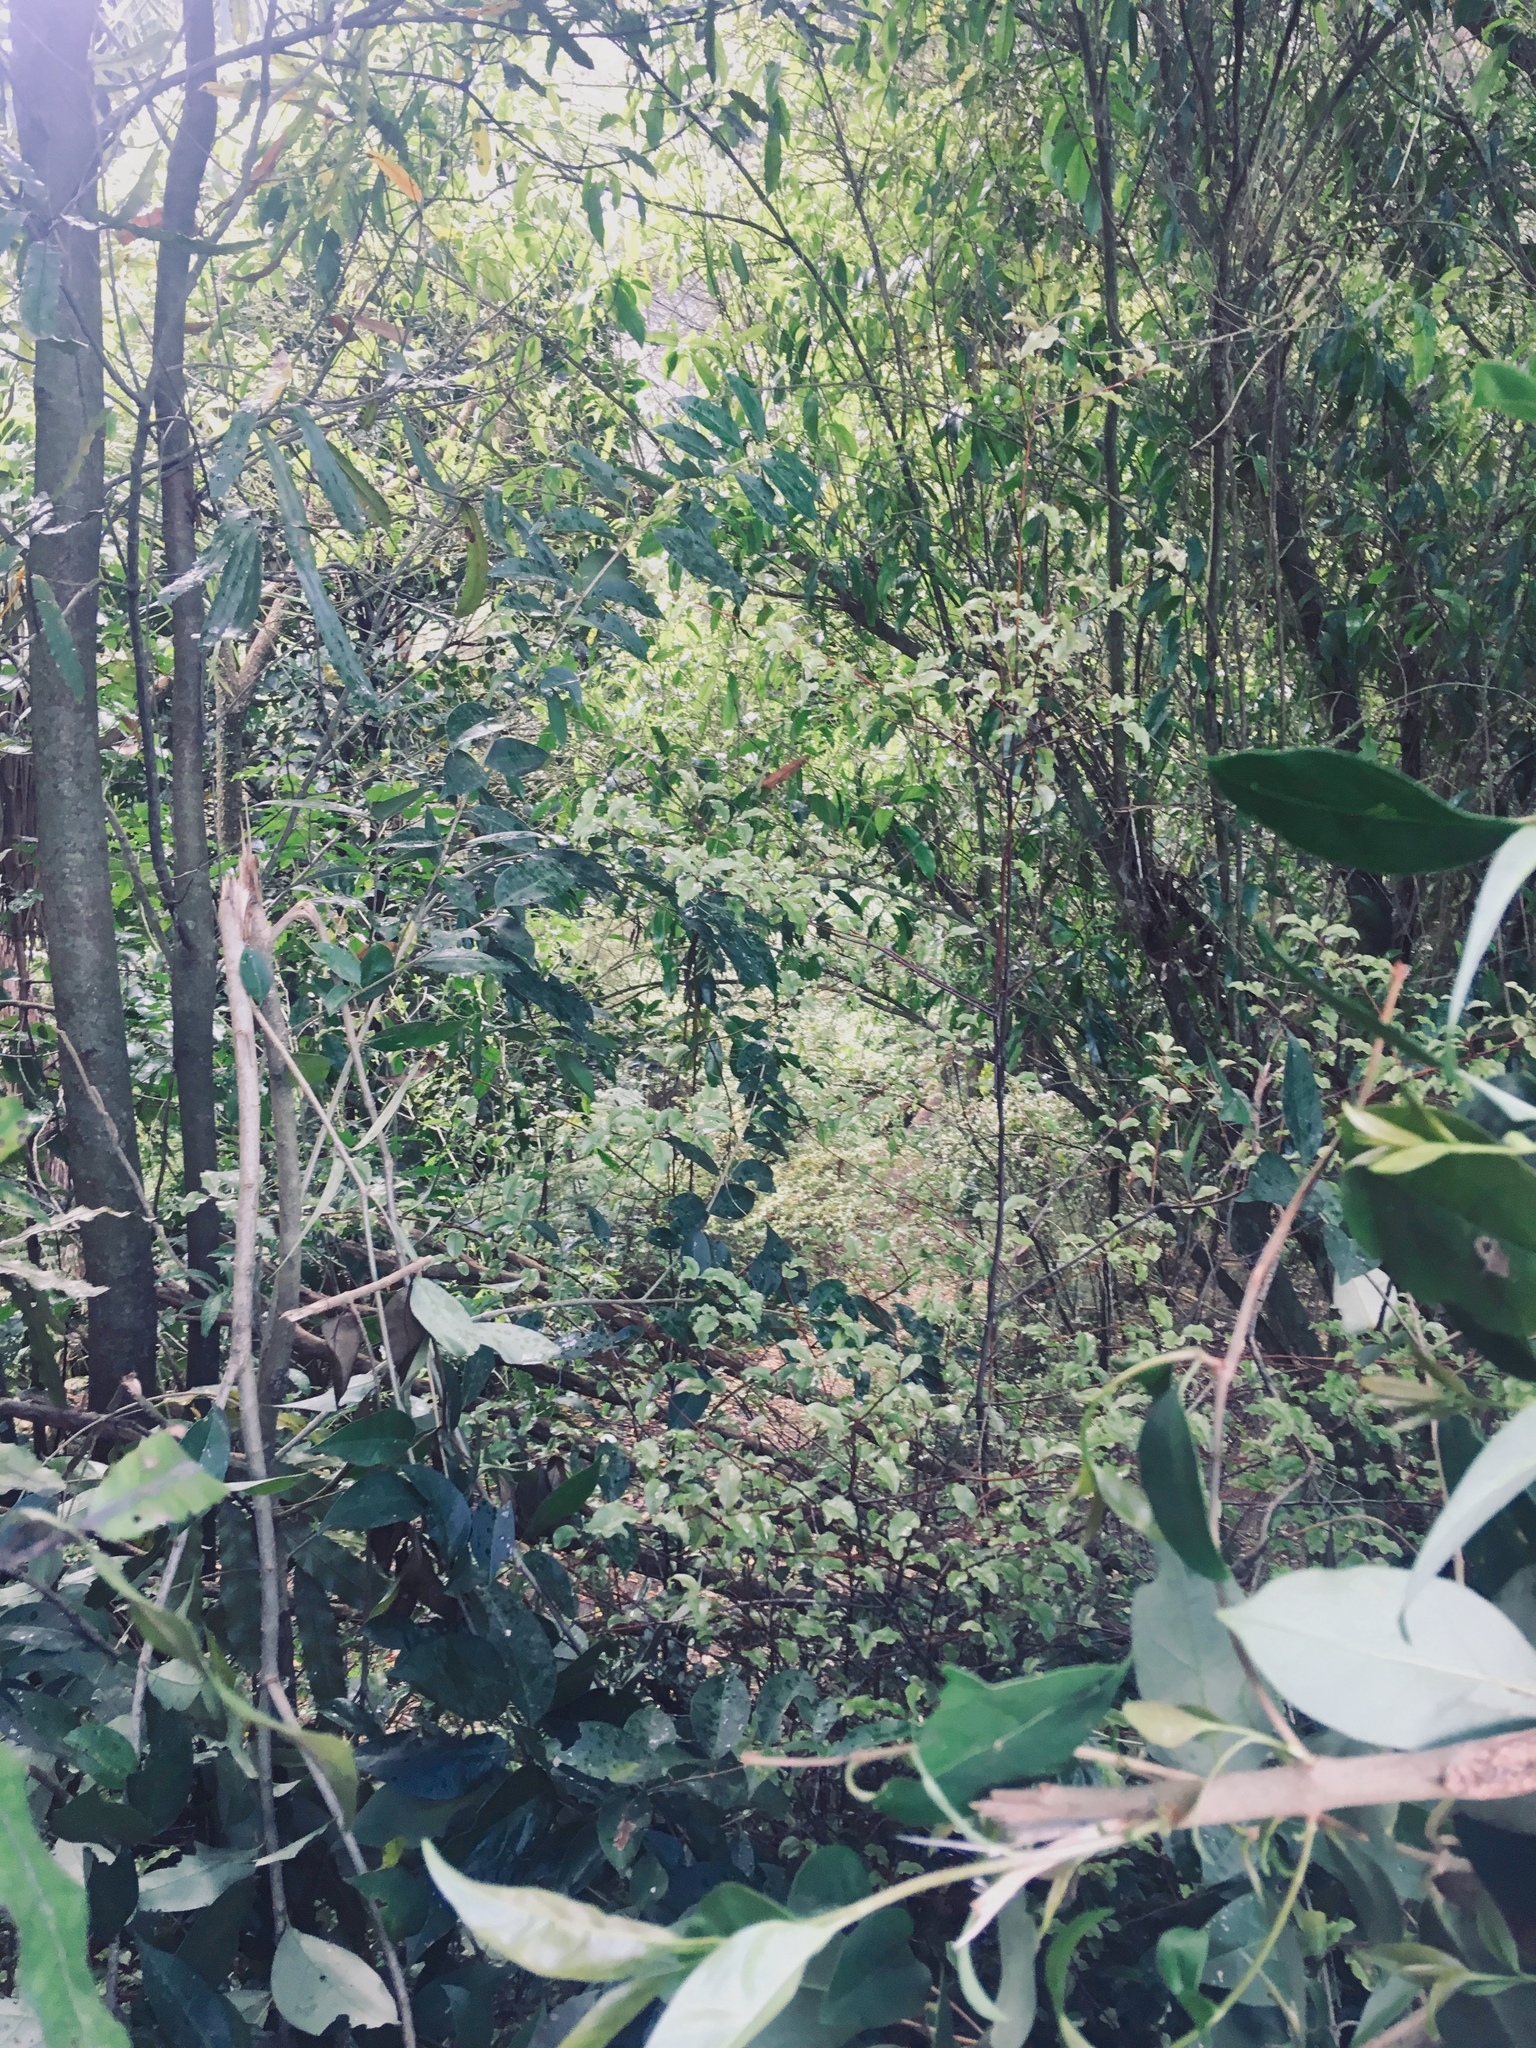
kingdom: Plantae
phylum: Tracheophyta
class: Magnoliopsida
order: Lamiales
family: Oleaceae
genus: Ligustrum
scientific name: Ligustrum lucidum
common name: Glossy privet
